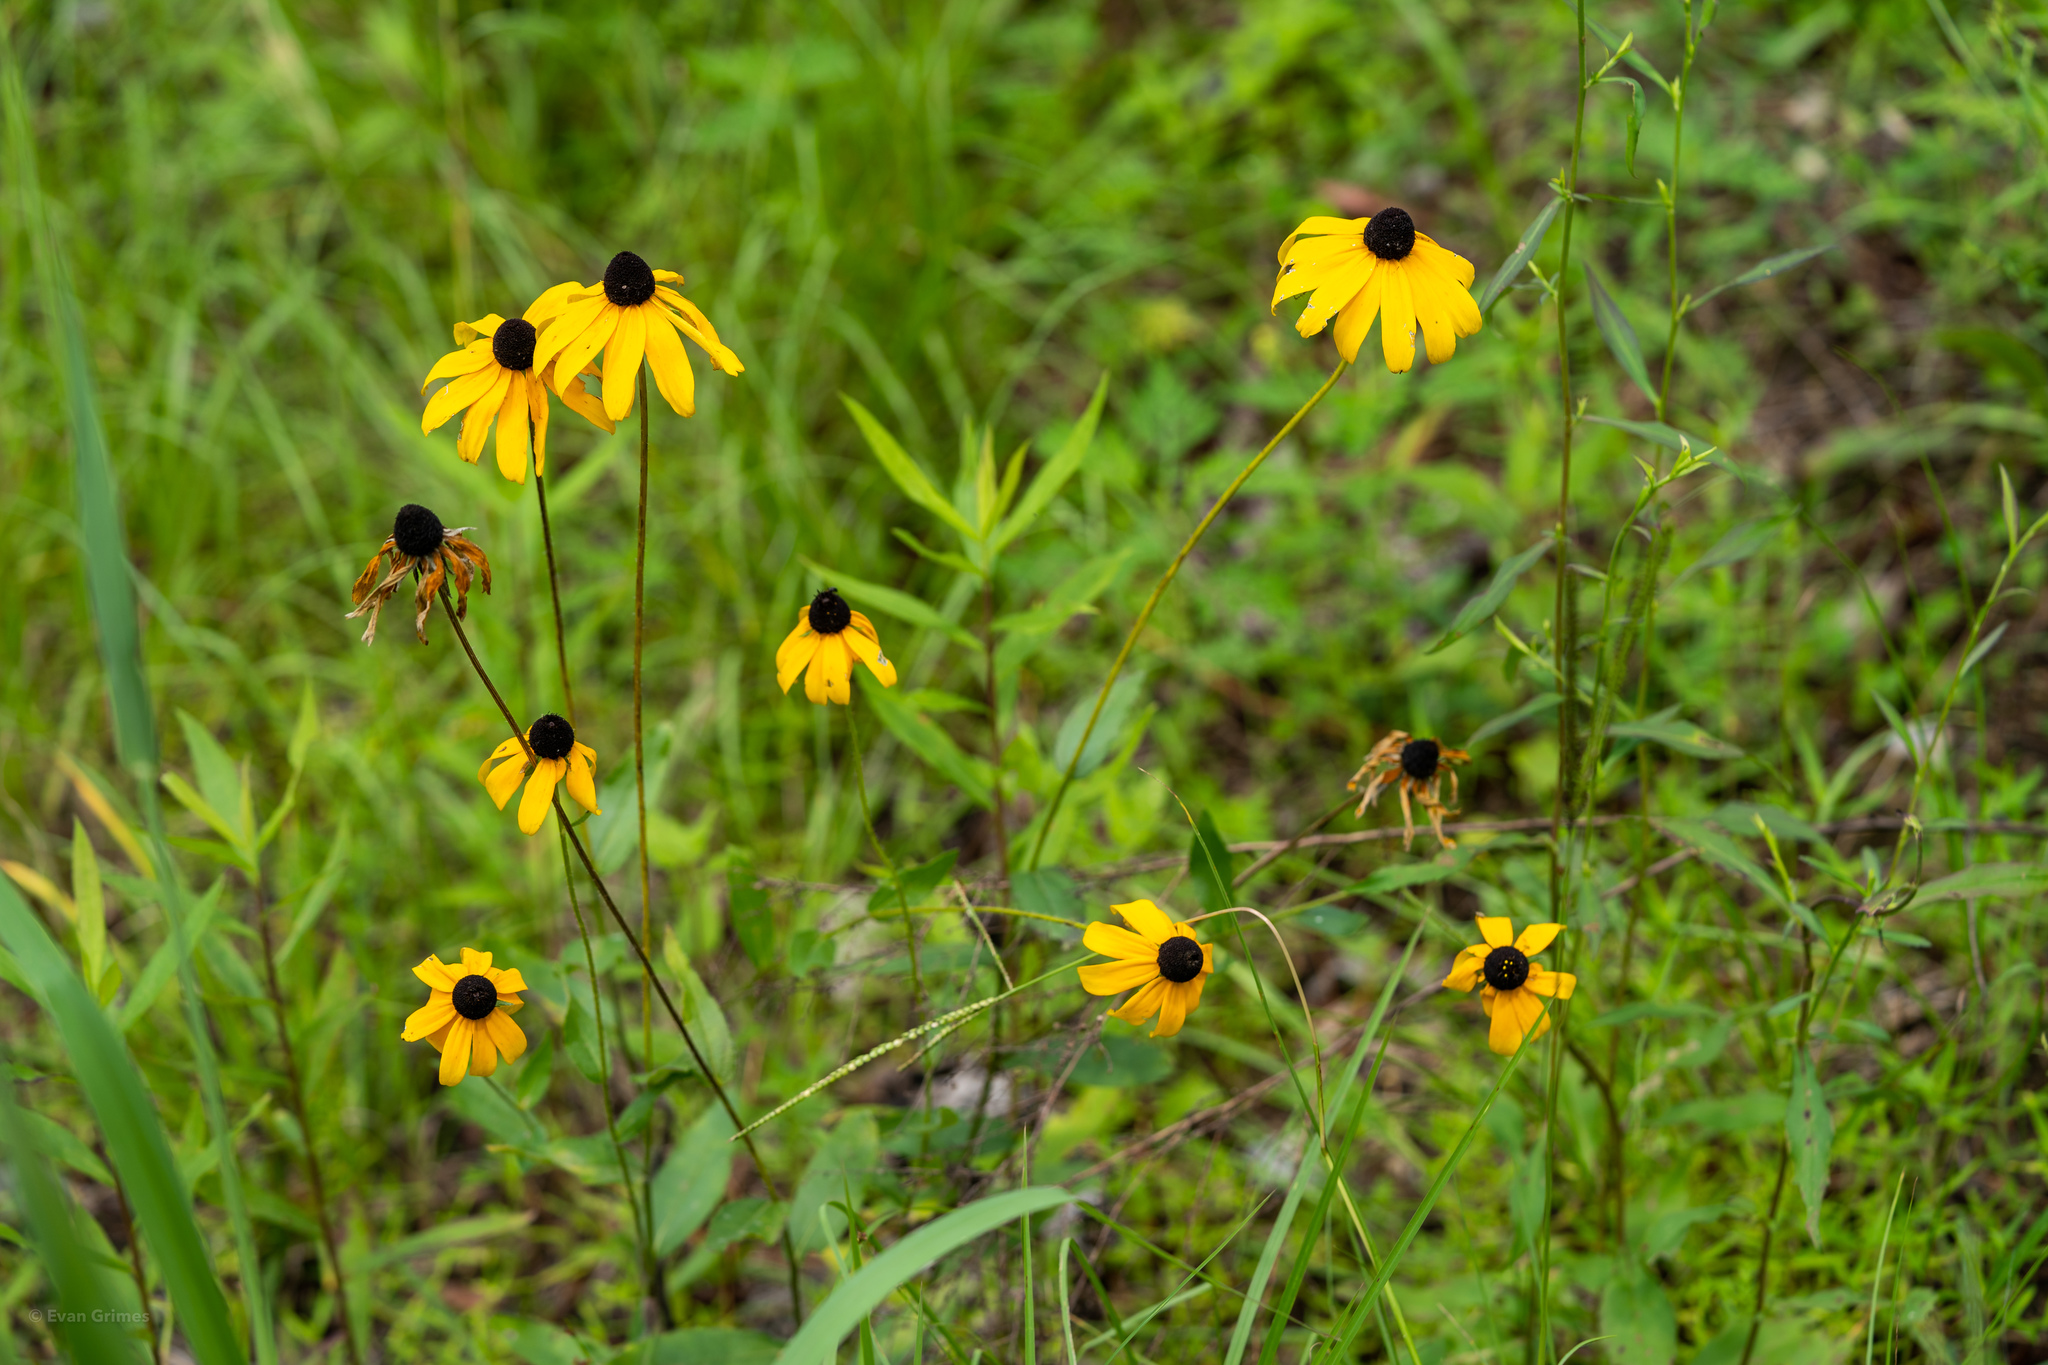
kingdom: Plantae
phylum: Tracheophyta
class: Magnoliopsida
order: Asterales
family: Asteraceae
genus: Rudbeckia
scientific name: Rudbeckia hirta
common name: Black-eyed-susan
